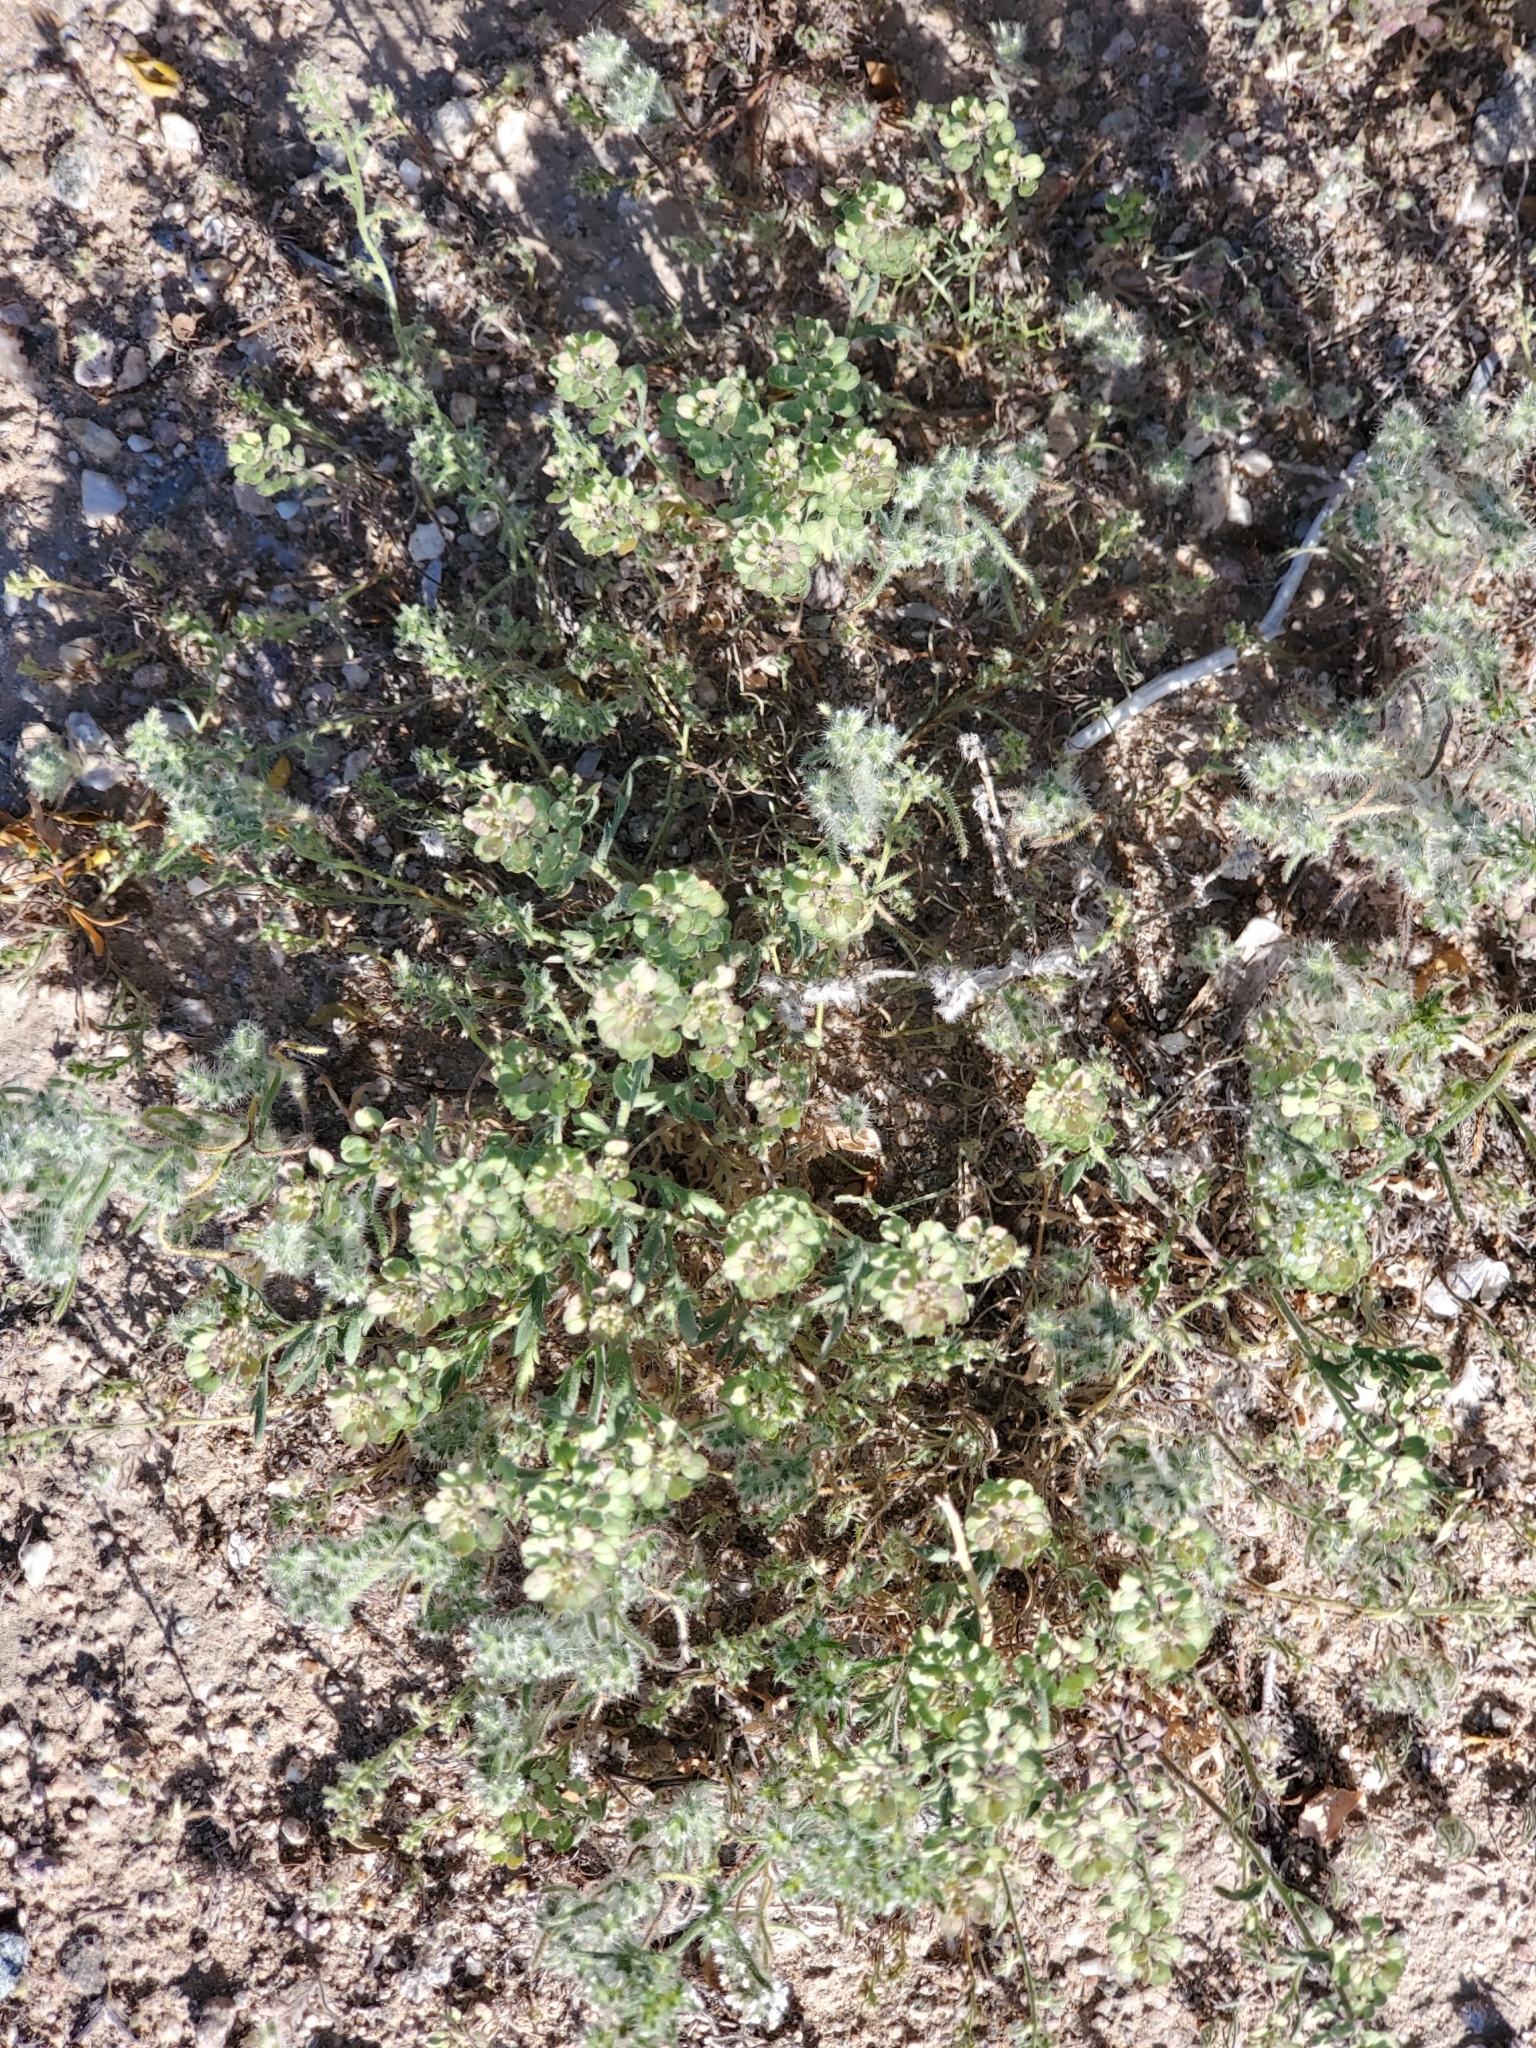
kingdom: Plantae
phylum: Tracheophyta
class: Magnoliopsida
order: Brassicales
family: Brassicaceae
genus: Lepidium
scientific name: Lepidium lasiocarpum
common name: Hairy-pod pepperwort
